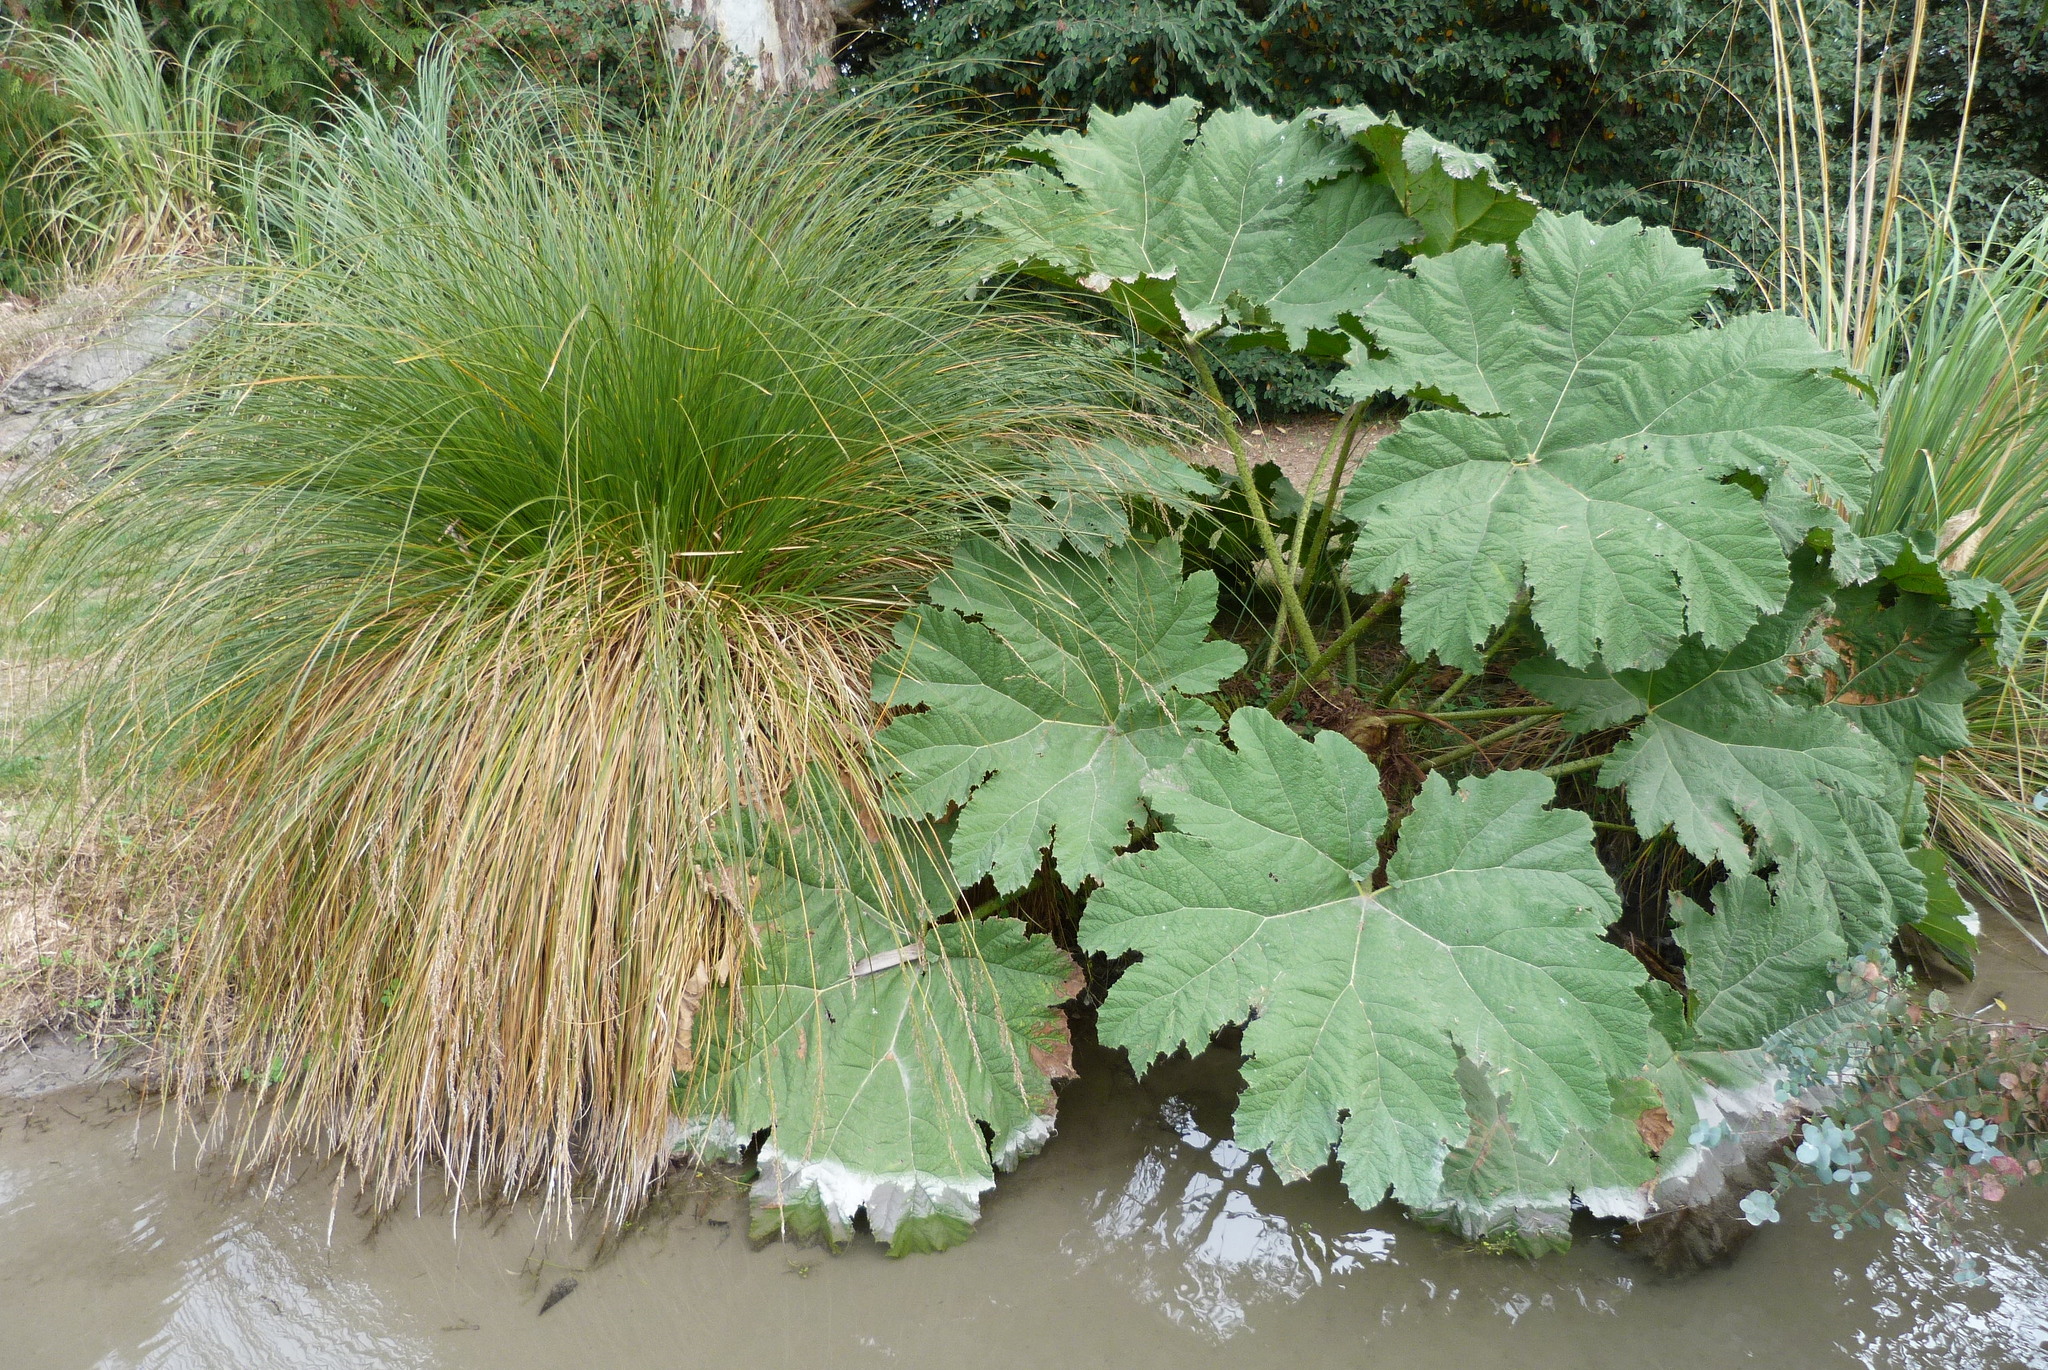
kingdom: Plantae
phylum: Tracheophyta
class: Magnoliopsida
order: Gunnerales
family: Gunneraceae
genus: Gunnera
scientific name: Gunnera tinctoria
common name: Giant-rhubarb
